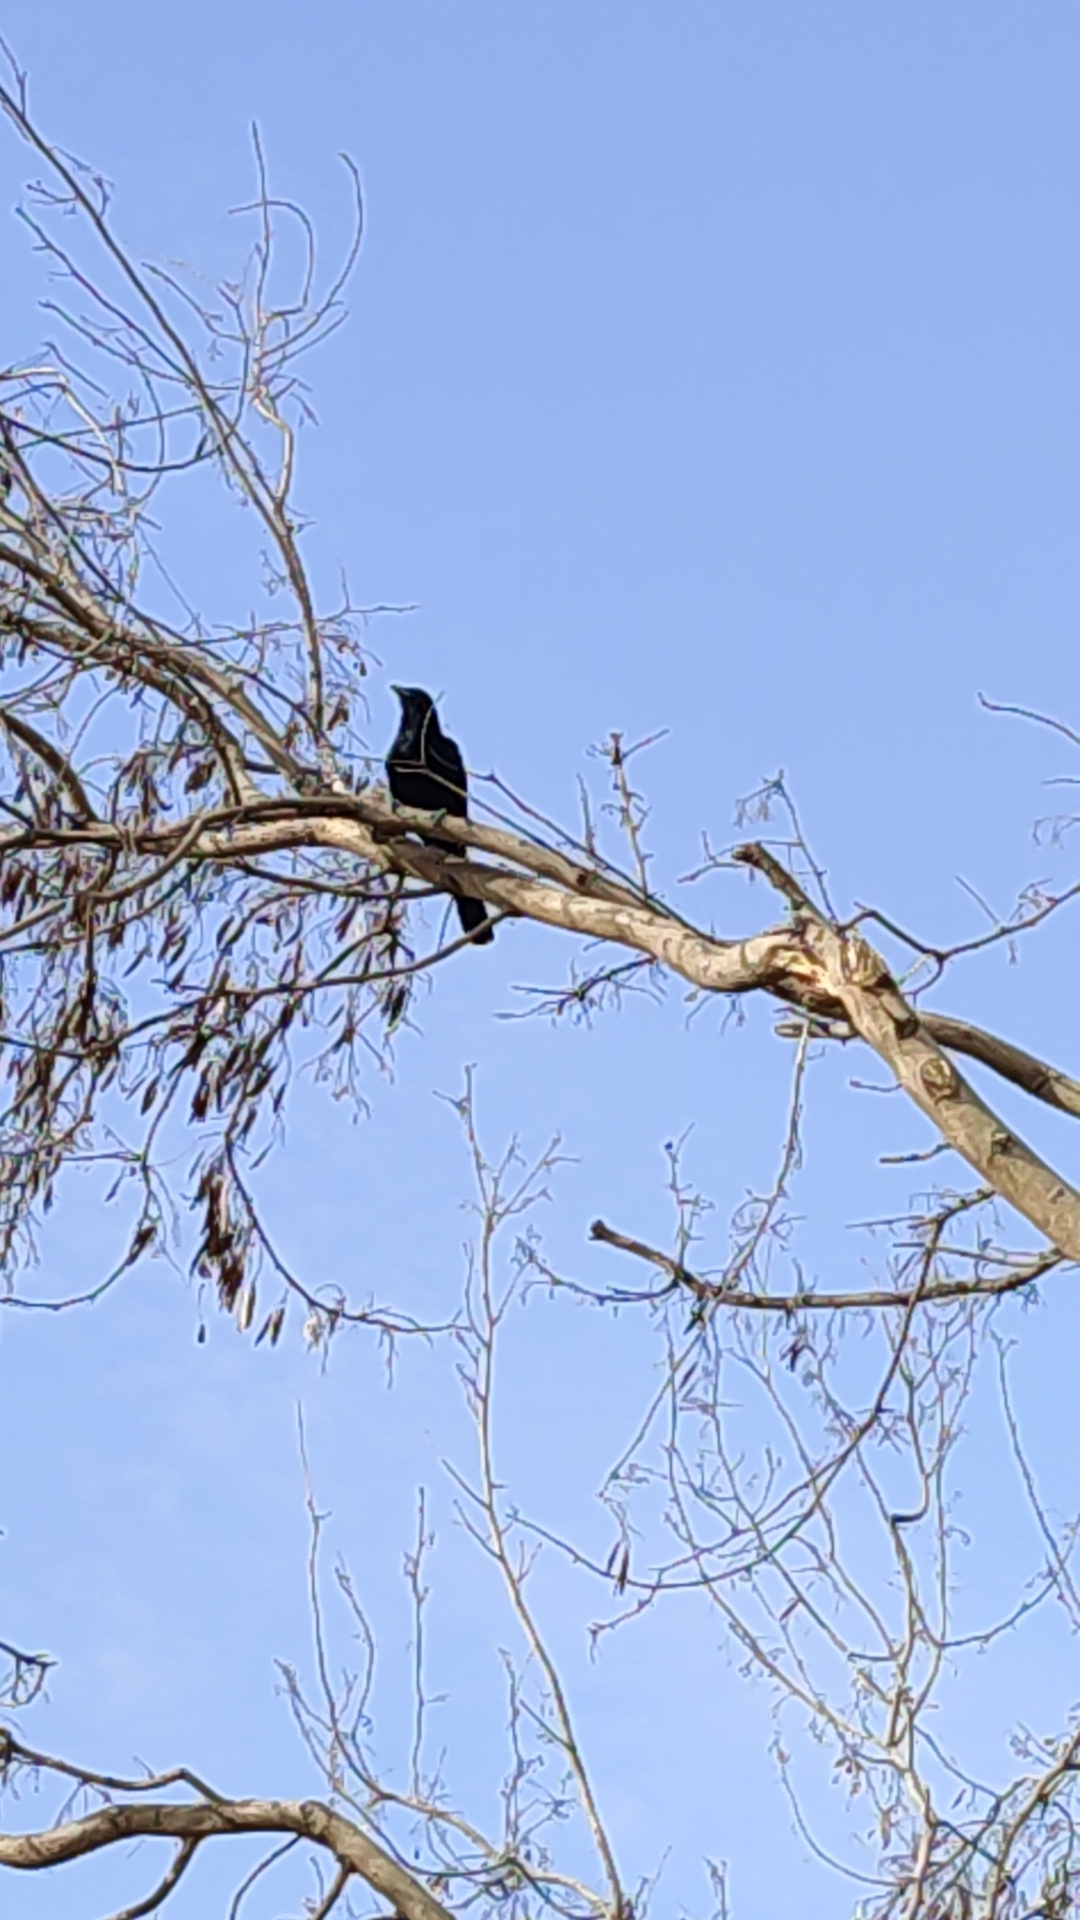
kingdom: Animalia
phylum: Chordata
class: Aves
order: Cuculiformes
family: Cuculidae
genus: Eudynamys
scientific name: Eudynamys scolopaceus
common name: Asian koel
